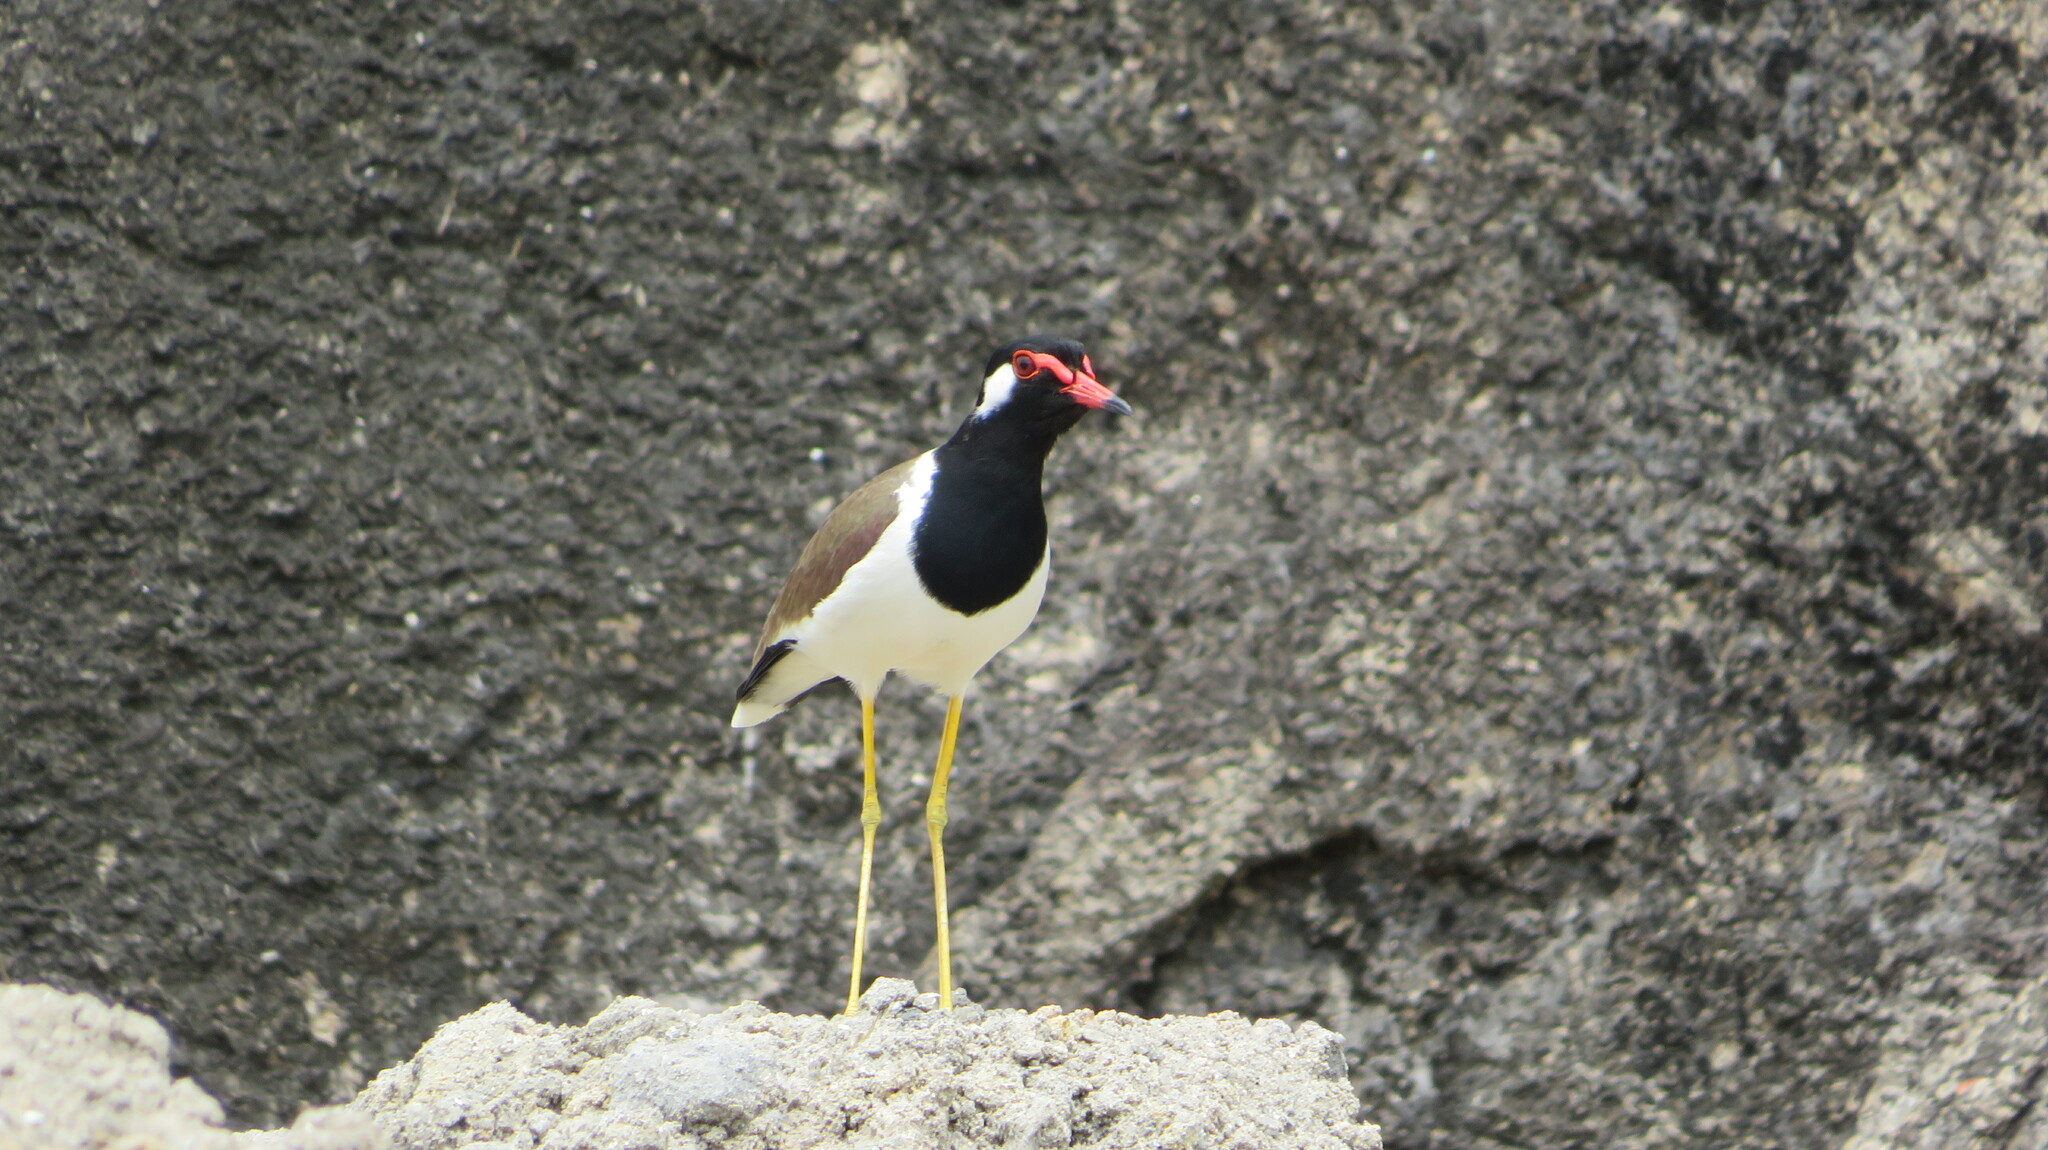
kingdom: Animalia
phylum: Chordata
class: Aves
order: Charadriiformes
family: Charadriidae
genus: Vanellus
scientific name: Vanellus indicus
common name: Red-wattled lapwing
